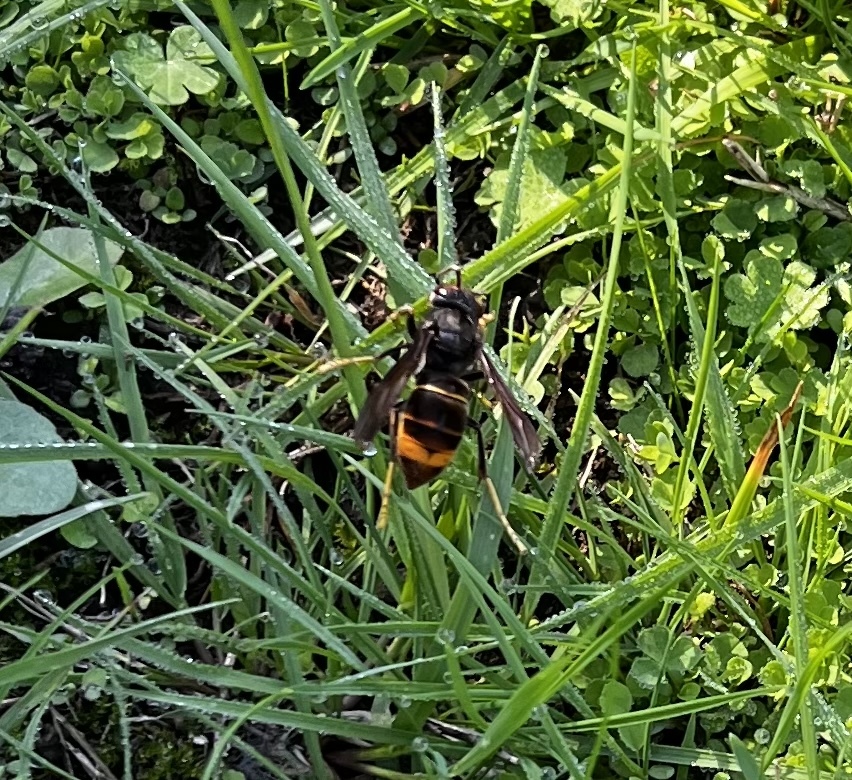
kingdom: Animalia
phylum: Arthropoda
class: Insecta
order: Hymenoptera
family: Vespidae
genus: Vespa
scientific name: Vespa velutina
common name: Asian hornet
